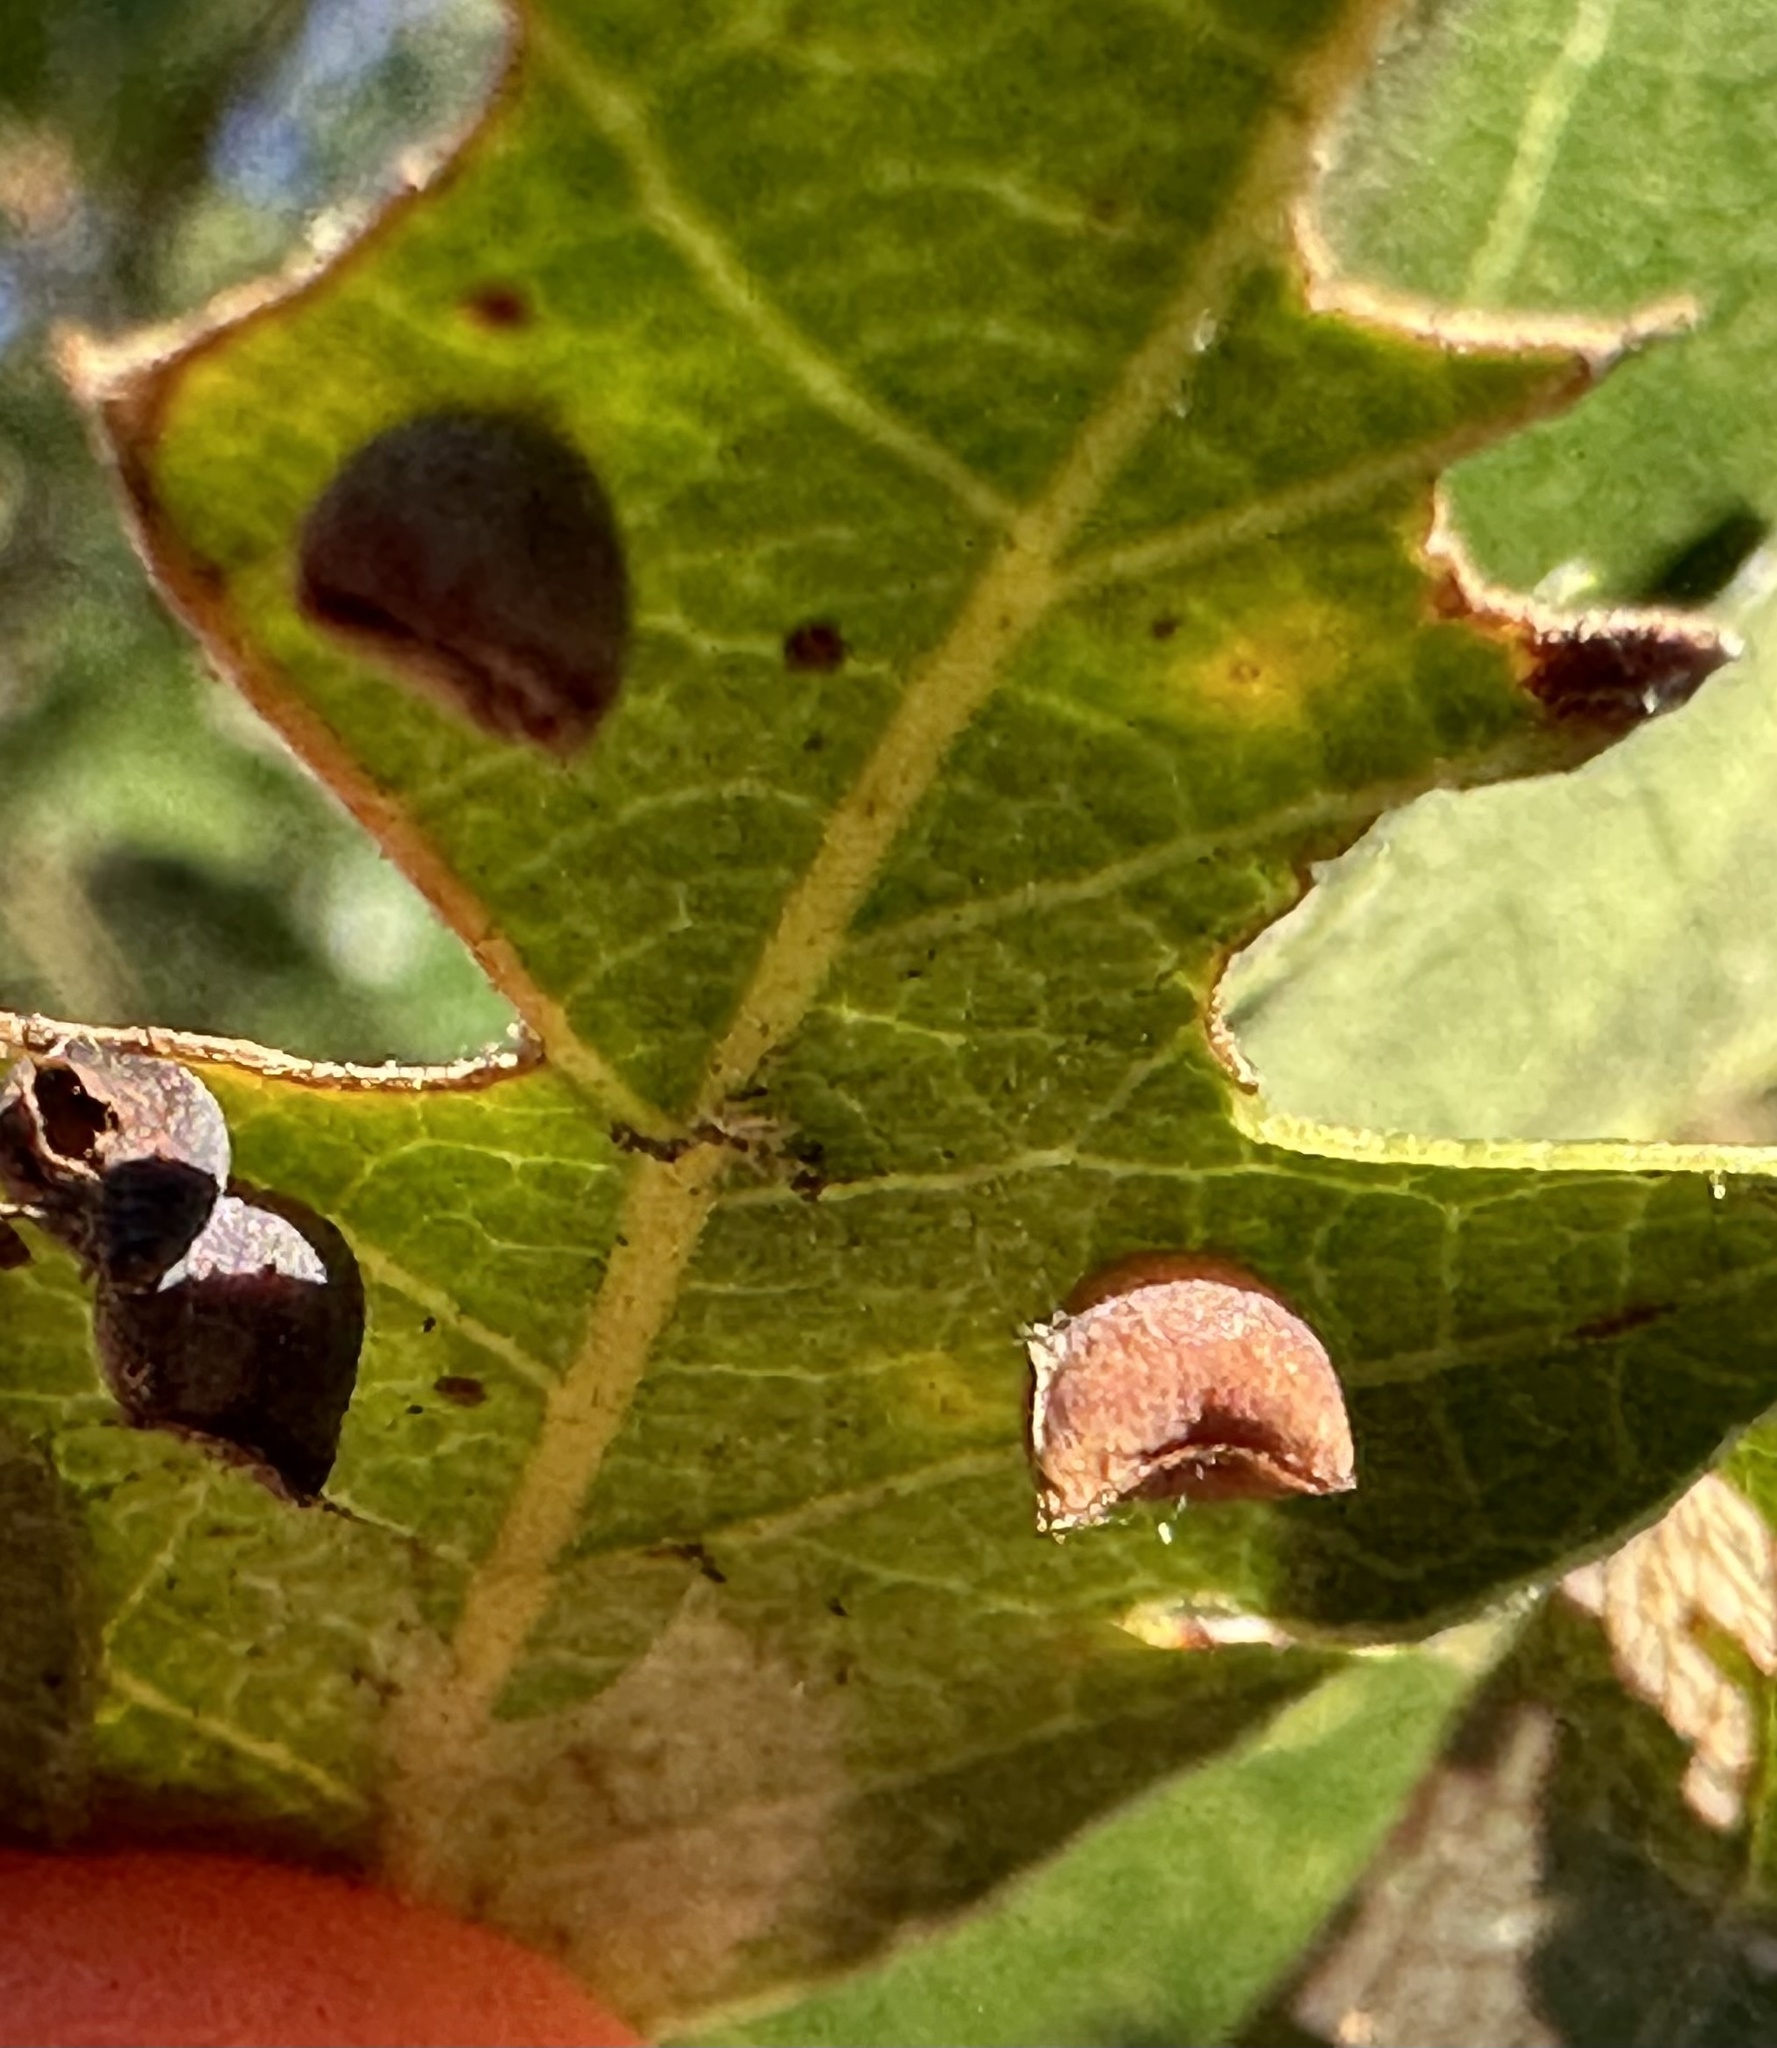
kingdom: Animalia
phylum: Arthropoda
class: Insecta
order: Hymenoptera
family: Cynipidae
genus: Andricus
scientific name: Andricus
